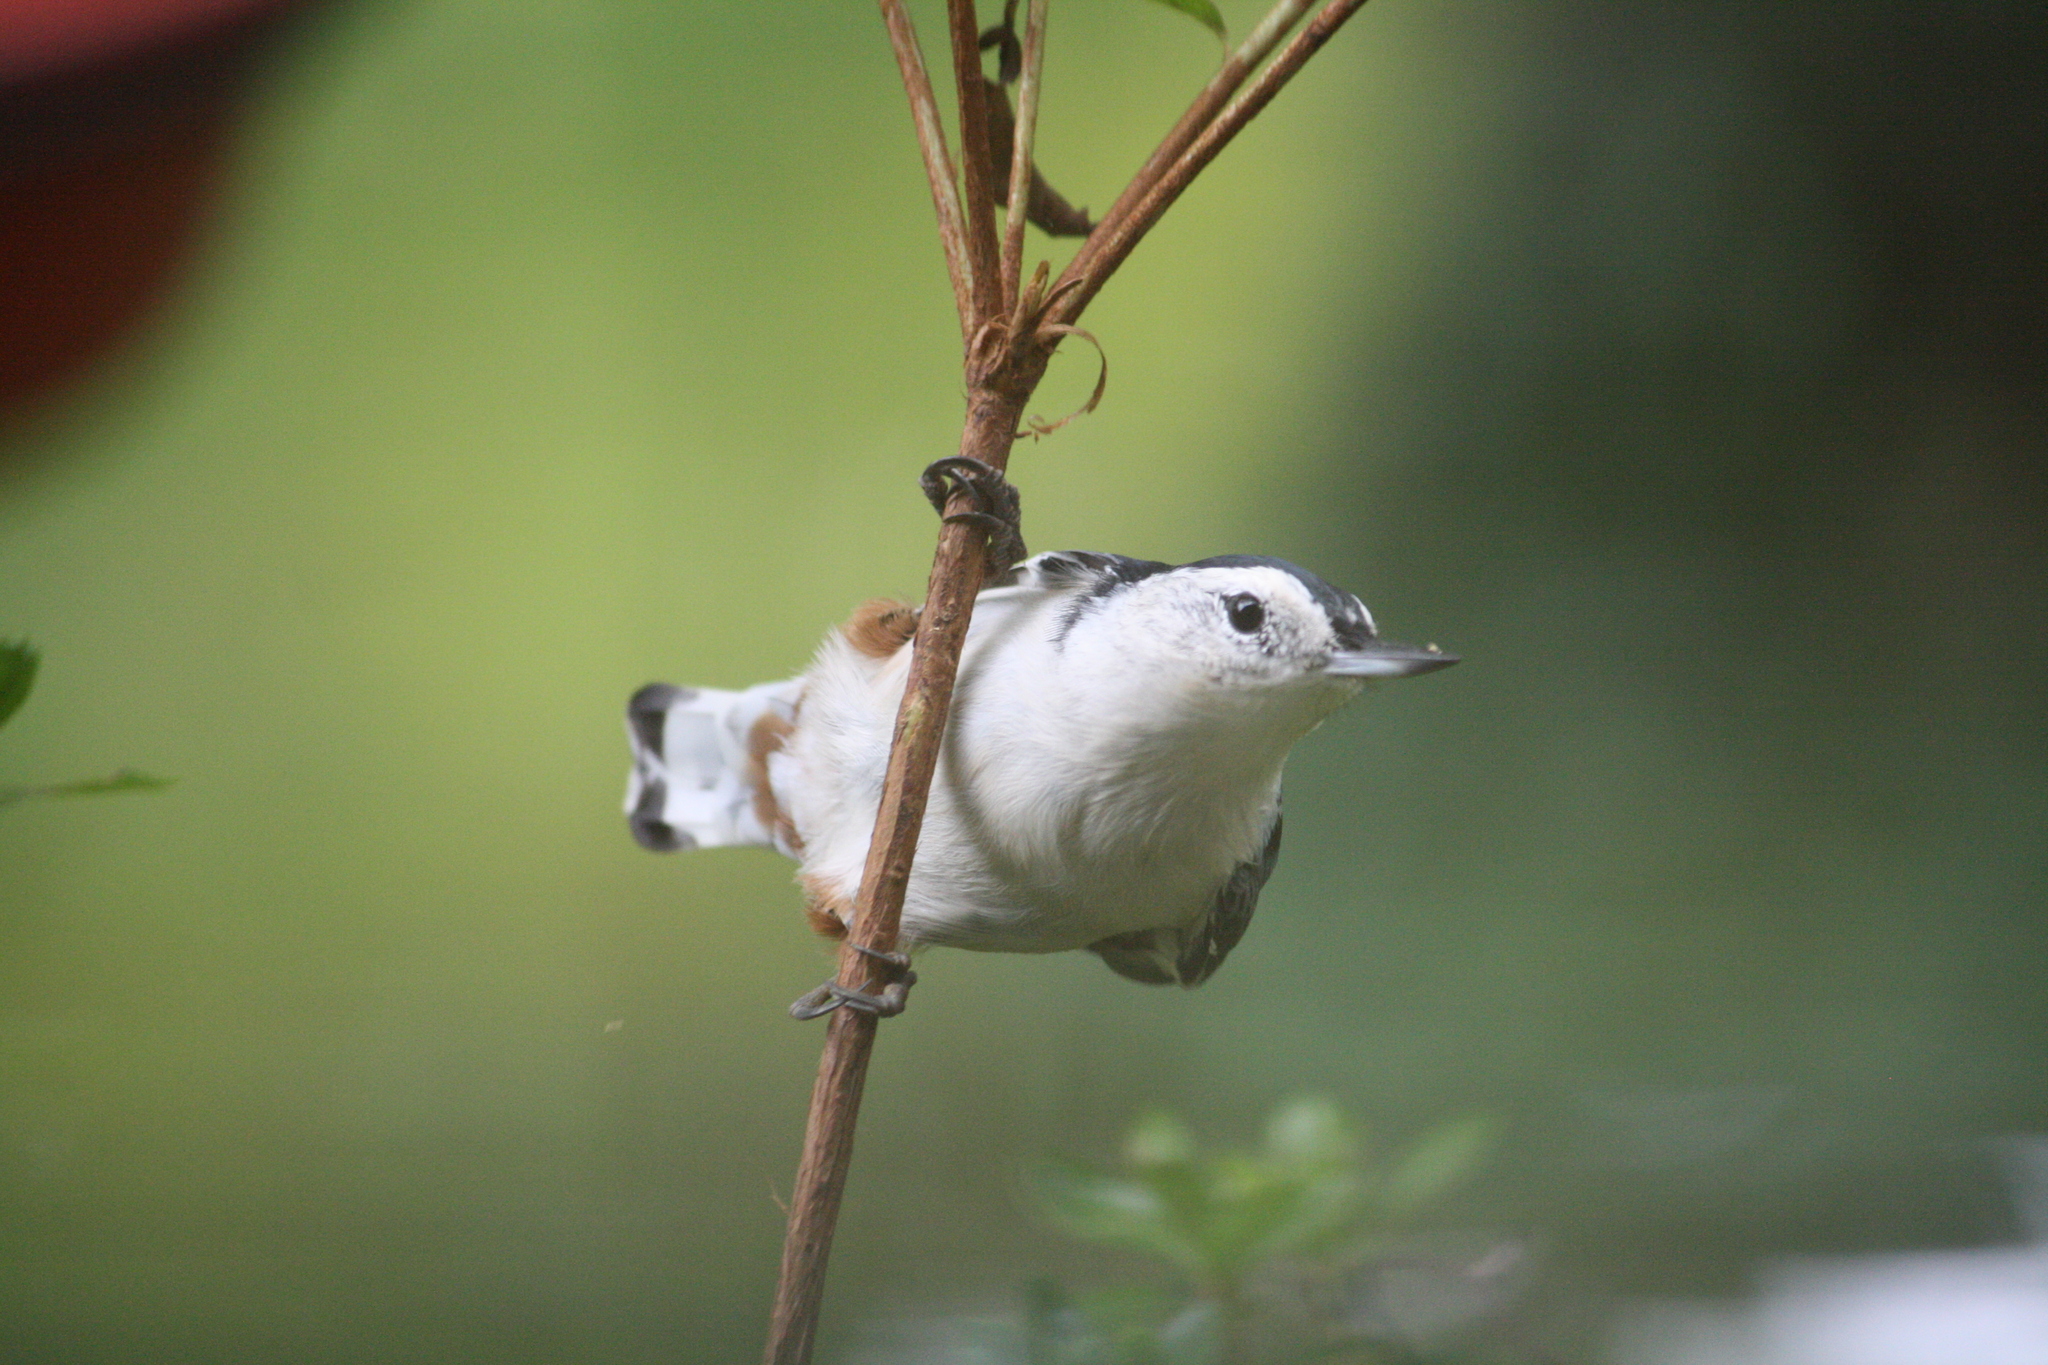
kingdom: Animalia
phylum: Chordata
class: Aves
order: Passeriformes
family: Sittidae
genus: Sitta
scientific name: Sitta carolinensis
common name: White-breasted nuthatch
